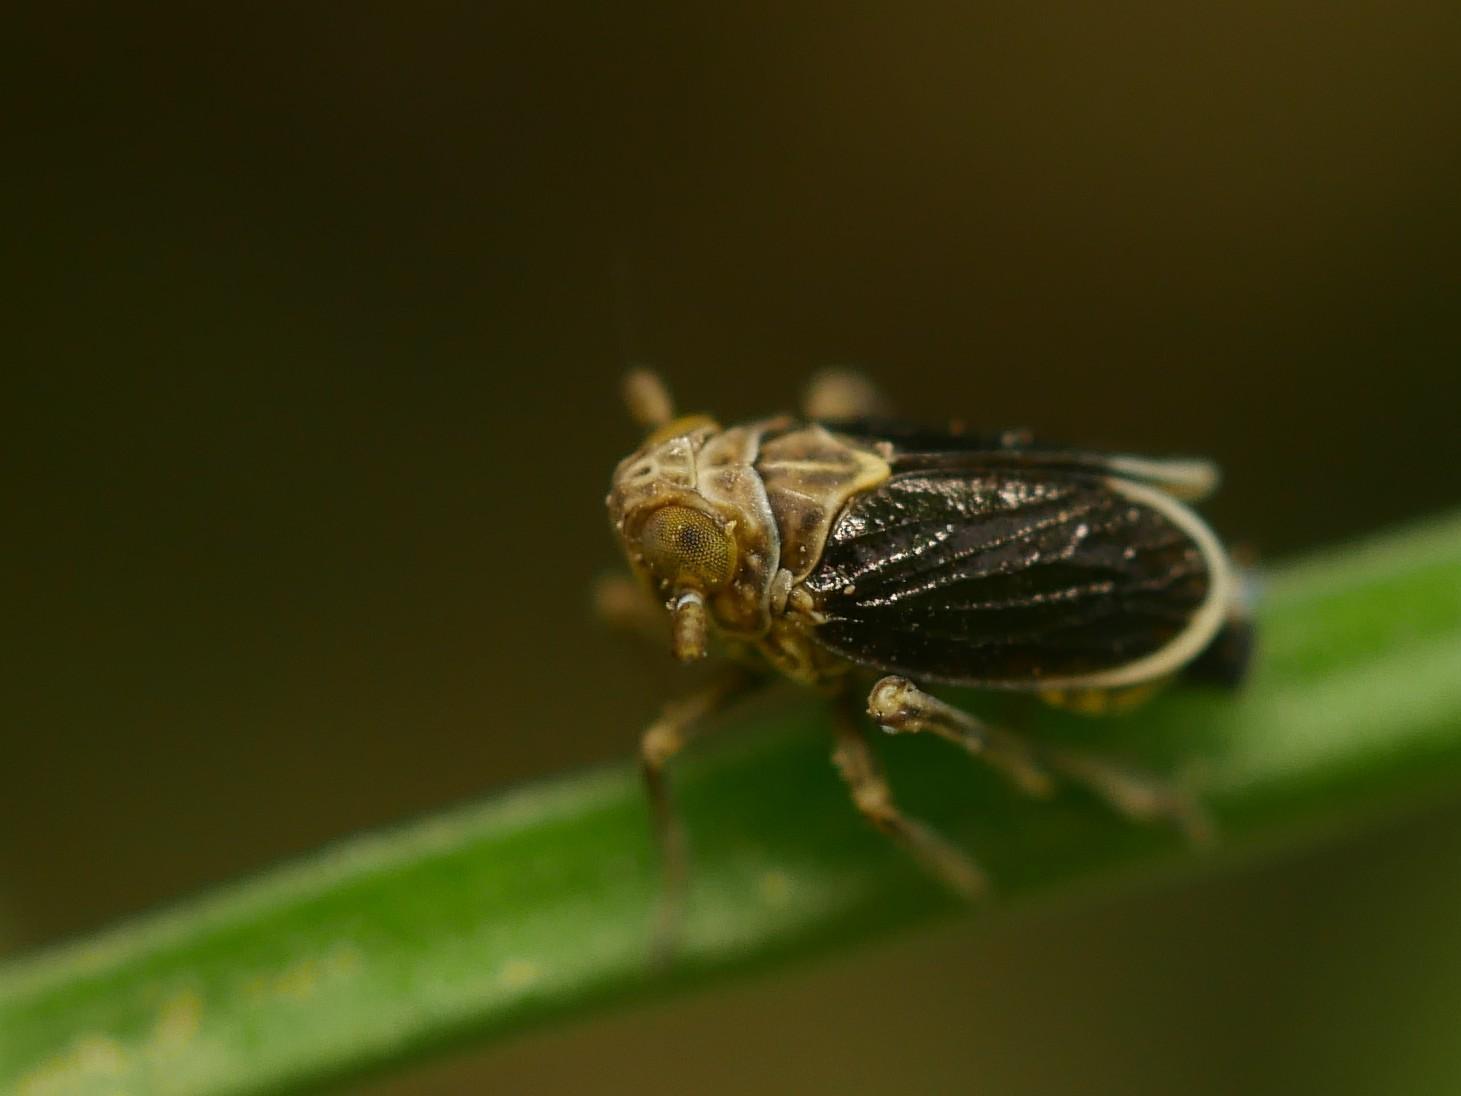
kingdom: Animalia
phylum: Arthropoda
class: Insecta
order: Hemiptera
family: Delphacidae
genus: Javesella
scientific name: Javesella stali
